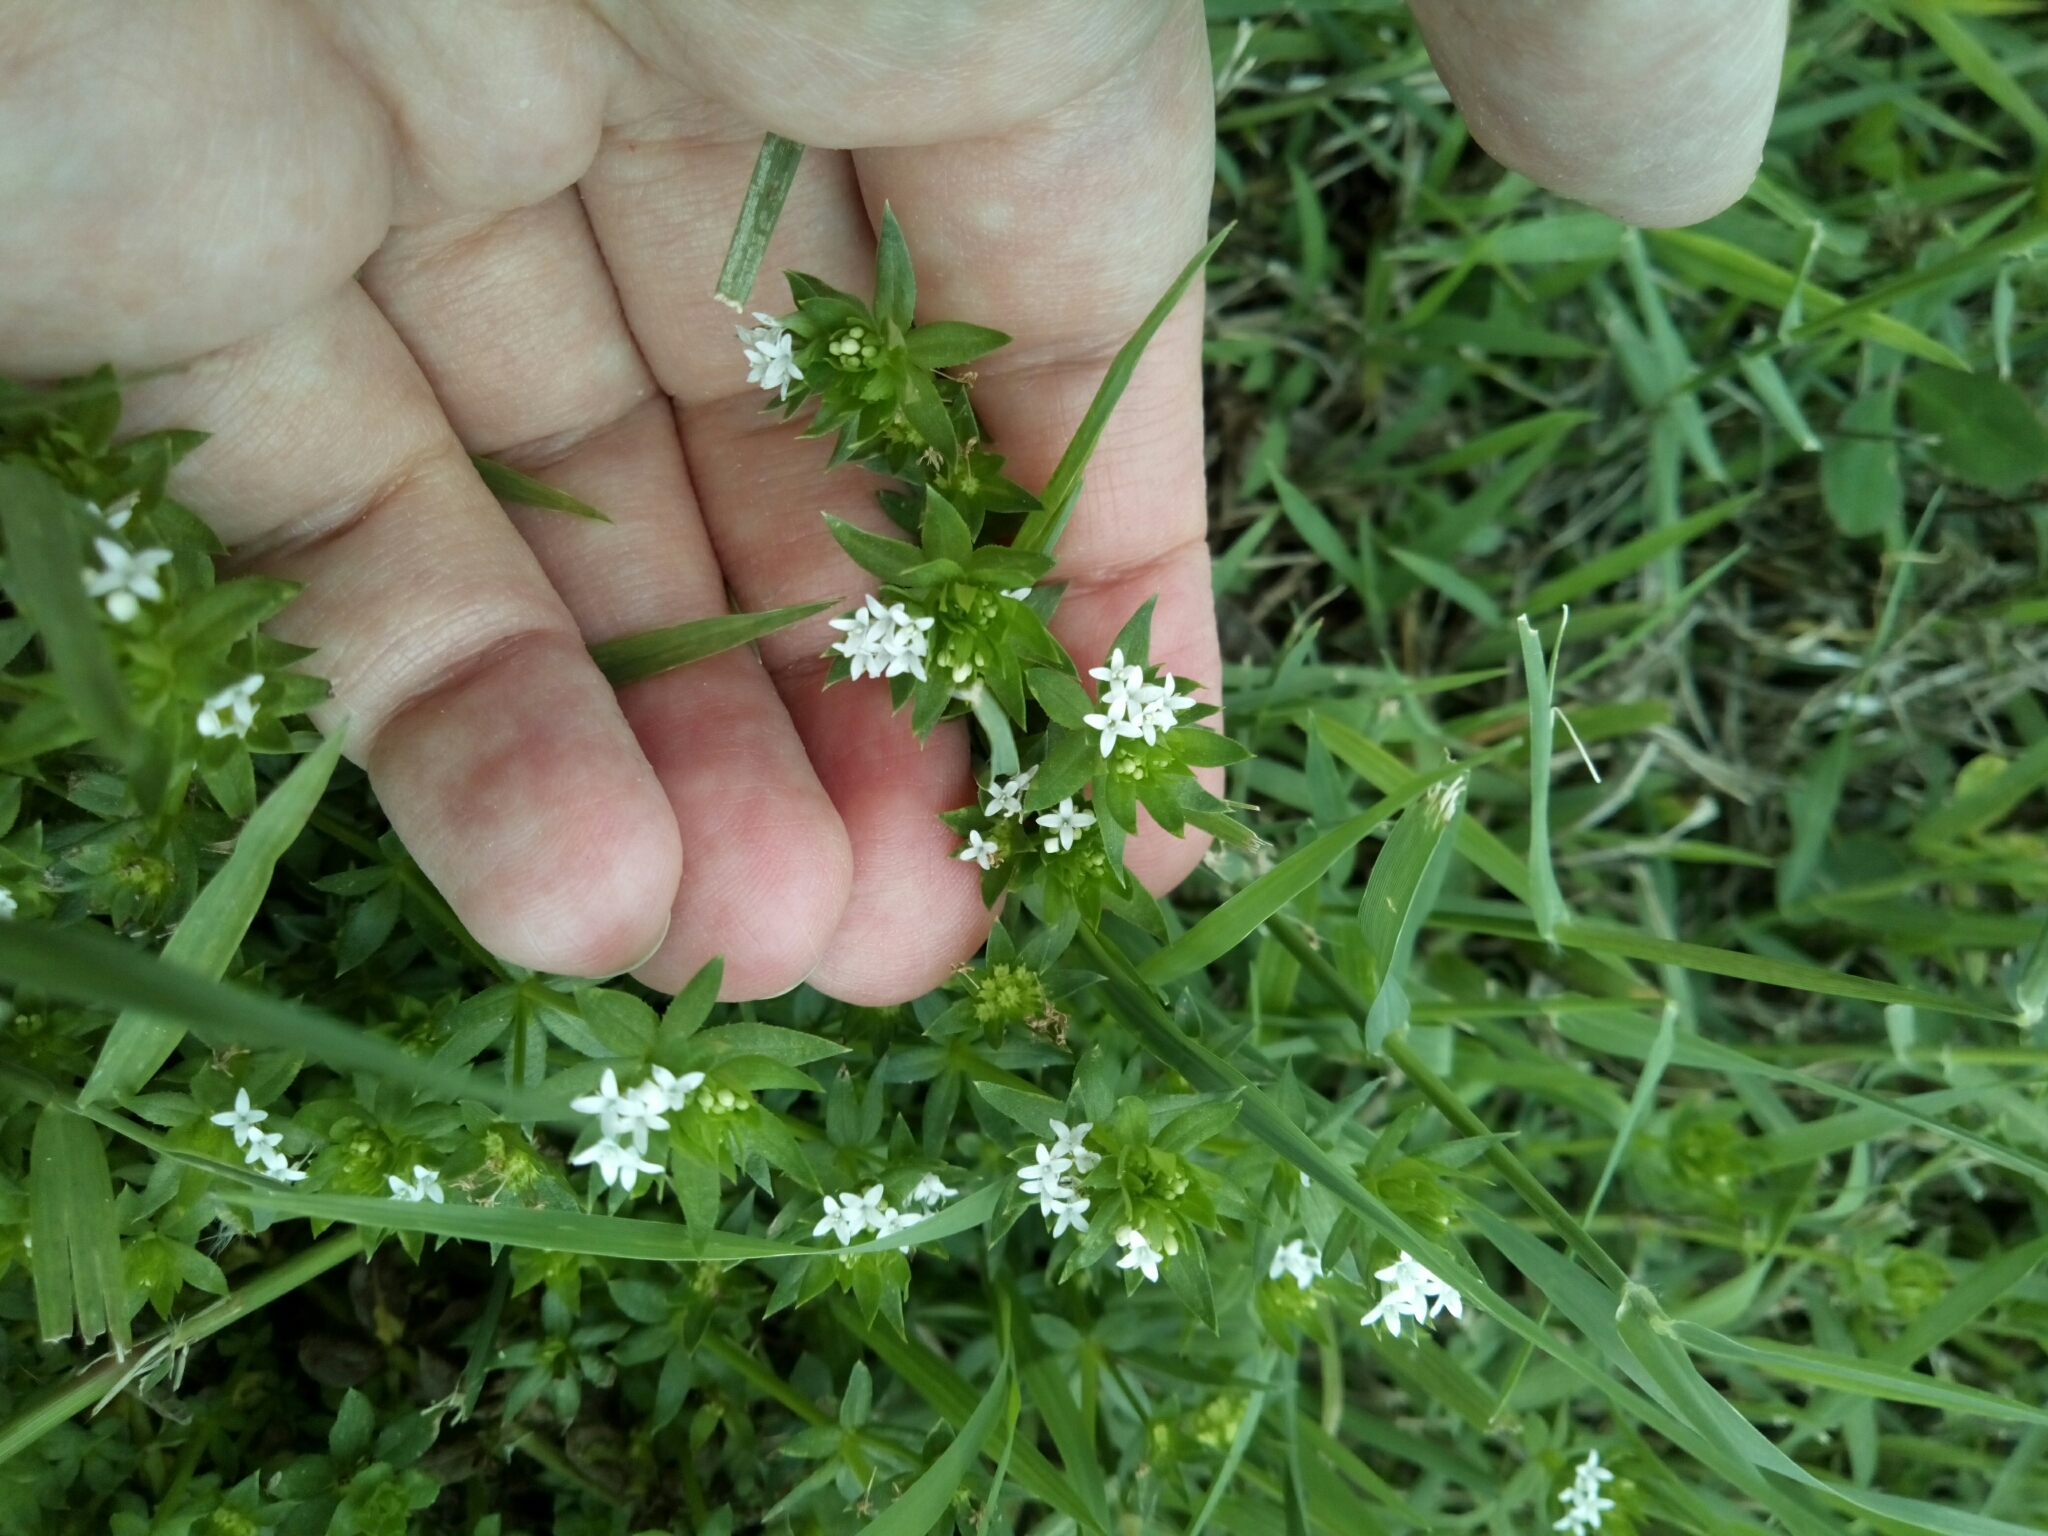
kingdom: Plantae
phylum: Tracheophyta
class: Magnoliopsida
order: Gentianales
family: Rubiaceae
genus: Sherardia
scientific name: Sherardia arvensis
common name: Field madder
